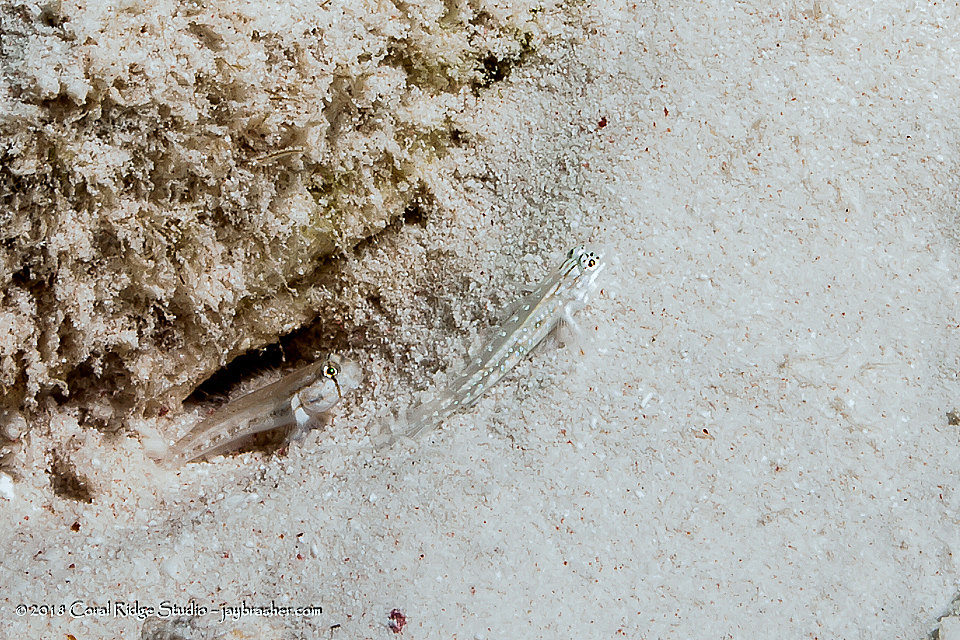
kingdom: Animalia
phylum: Chordata
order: Perciformes
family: Gobiidae
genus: Gnatholepis
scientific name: Gnatholepis thompsoni
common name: Goldspot goby
